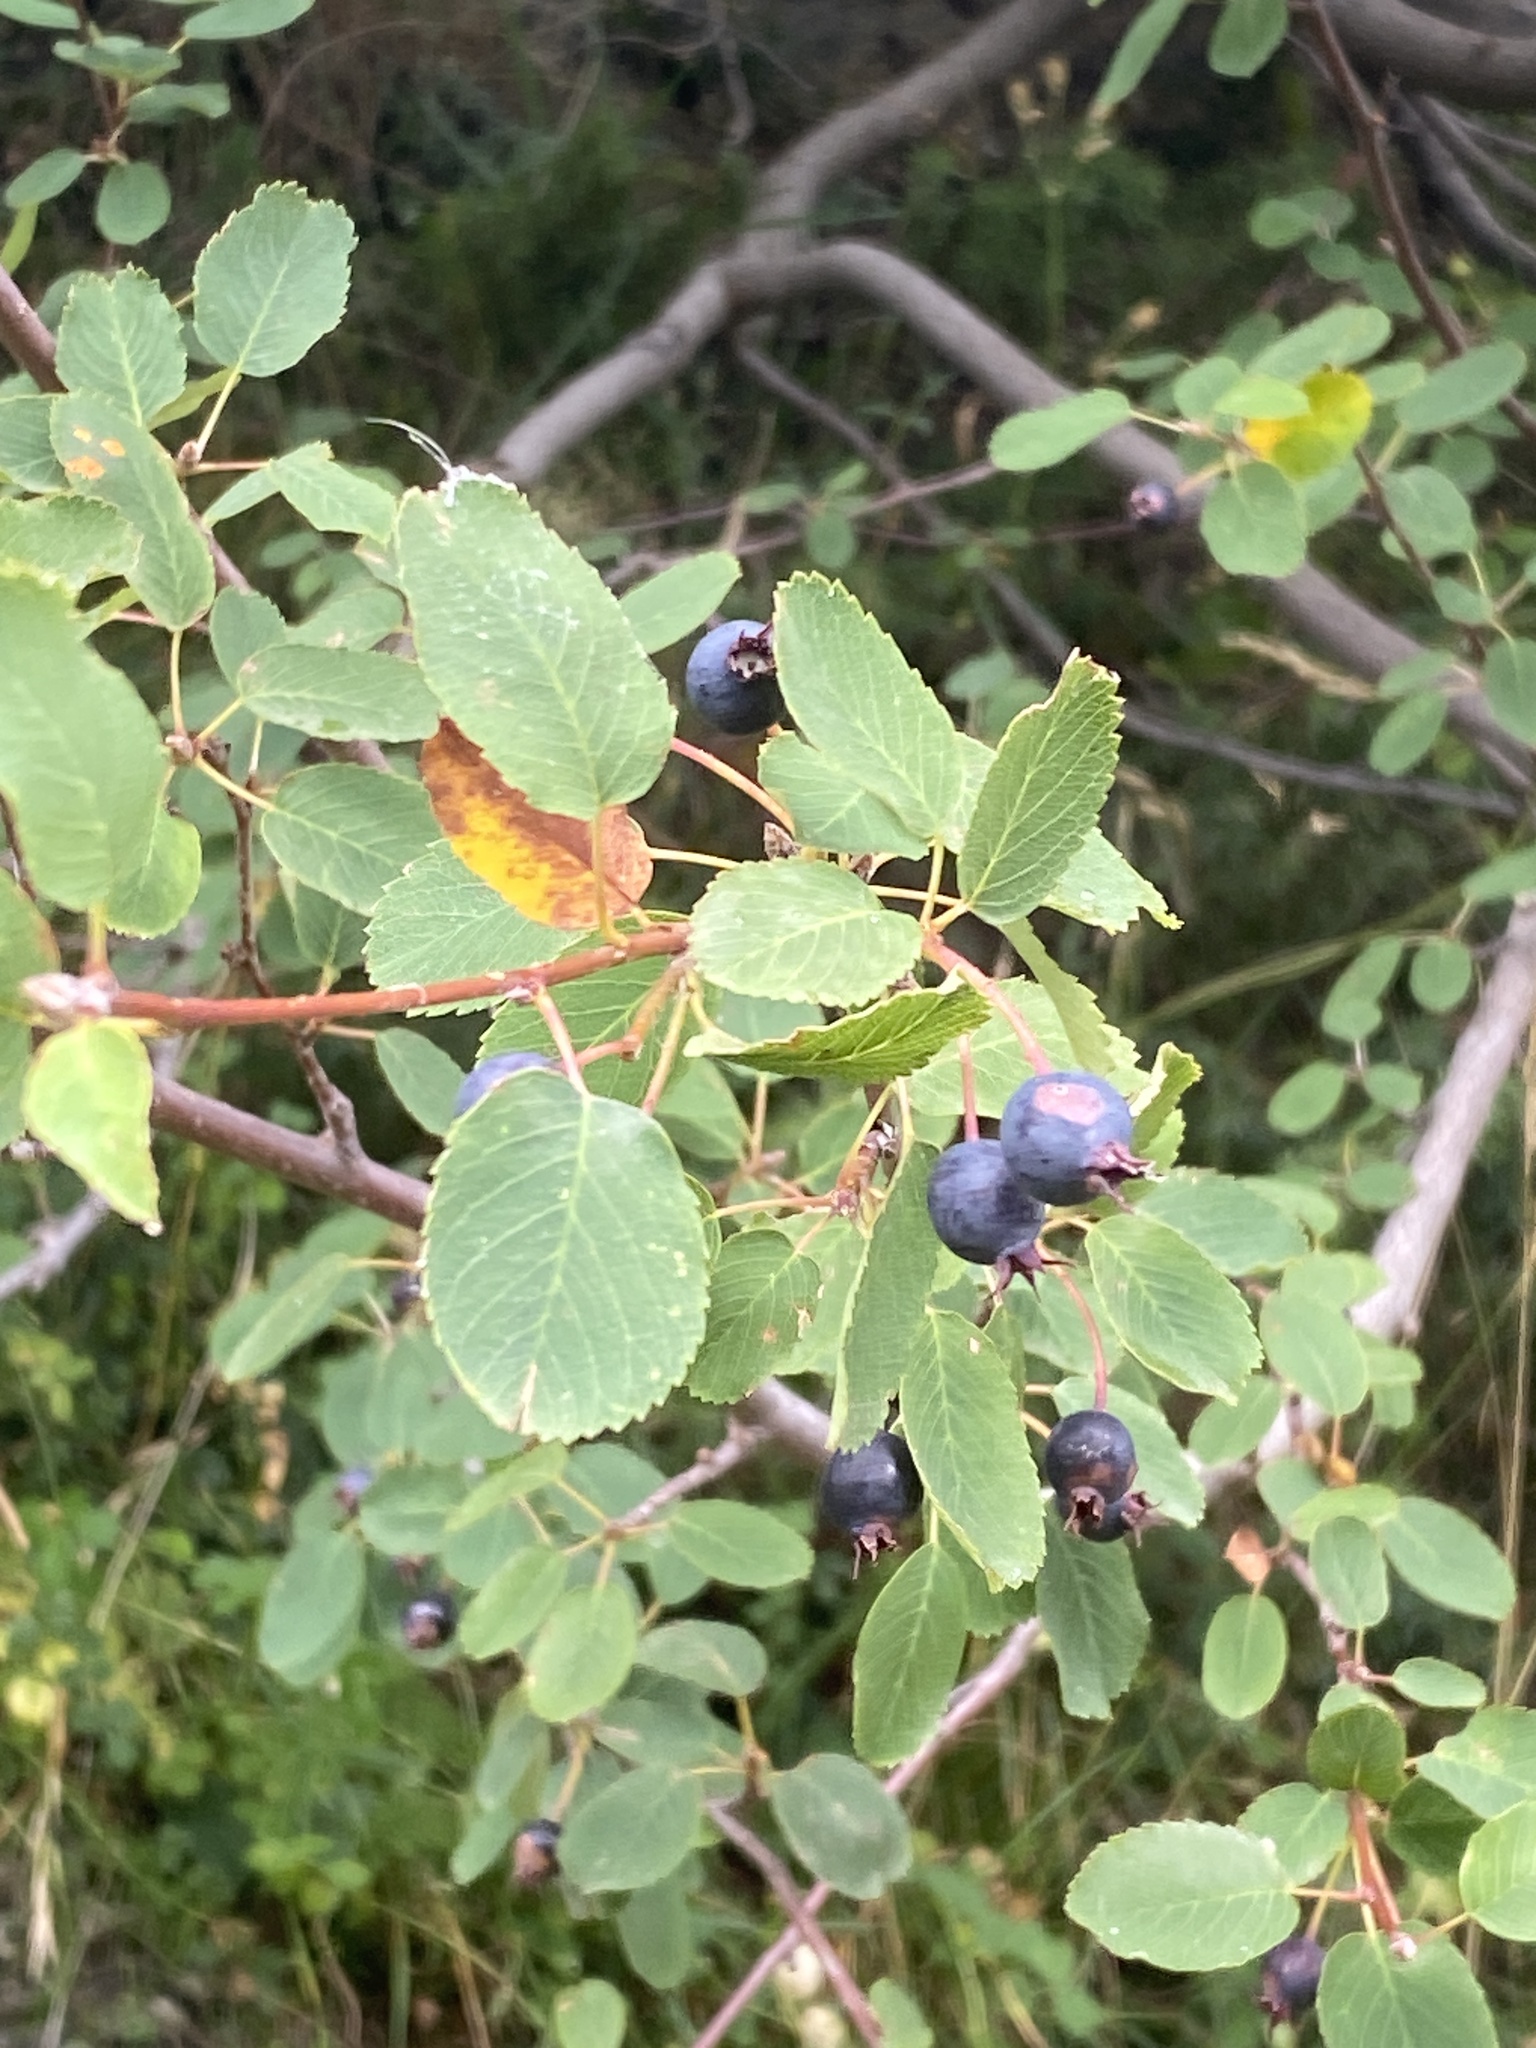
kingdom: Plantae
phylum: Tracheophyta
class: Magnoliopsida
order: Rosales
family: Rosaceae
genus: Amelanchier
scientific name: Amelanchier ovalis
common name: Serviceberry
